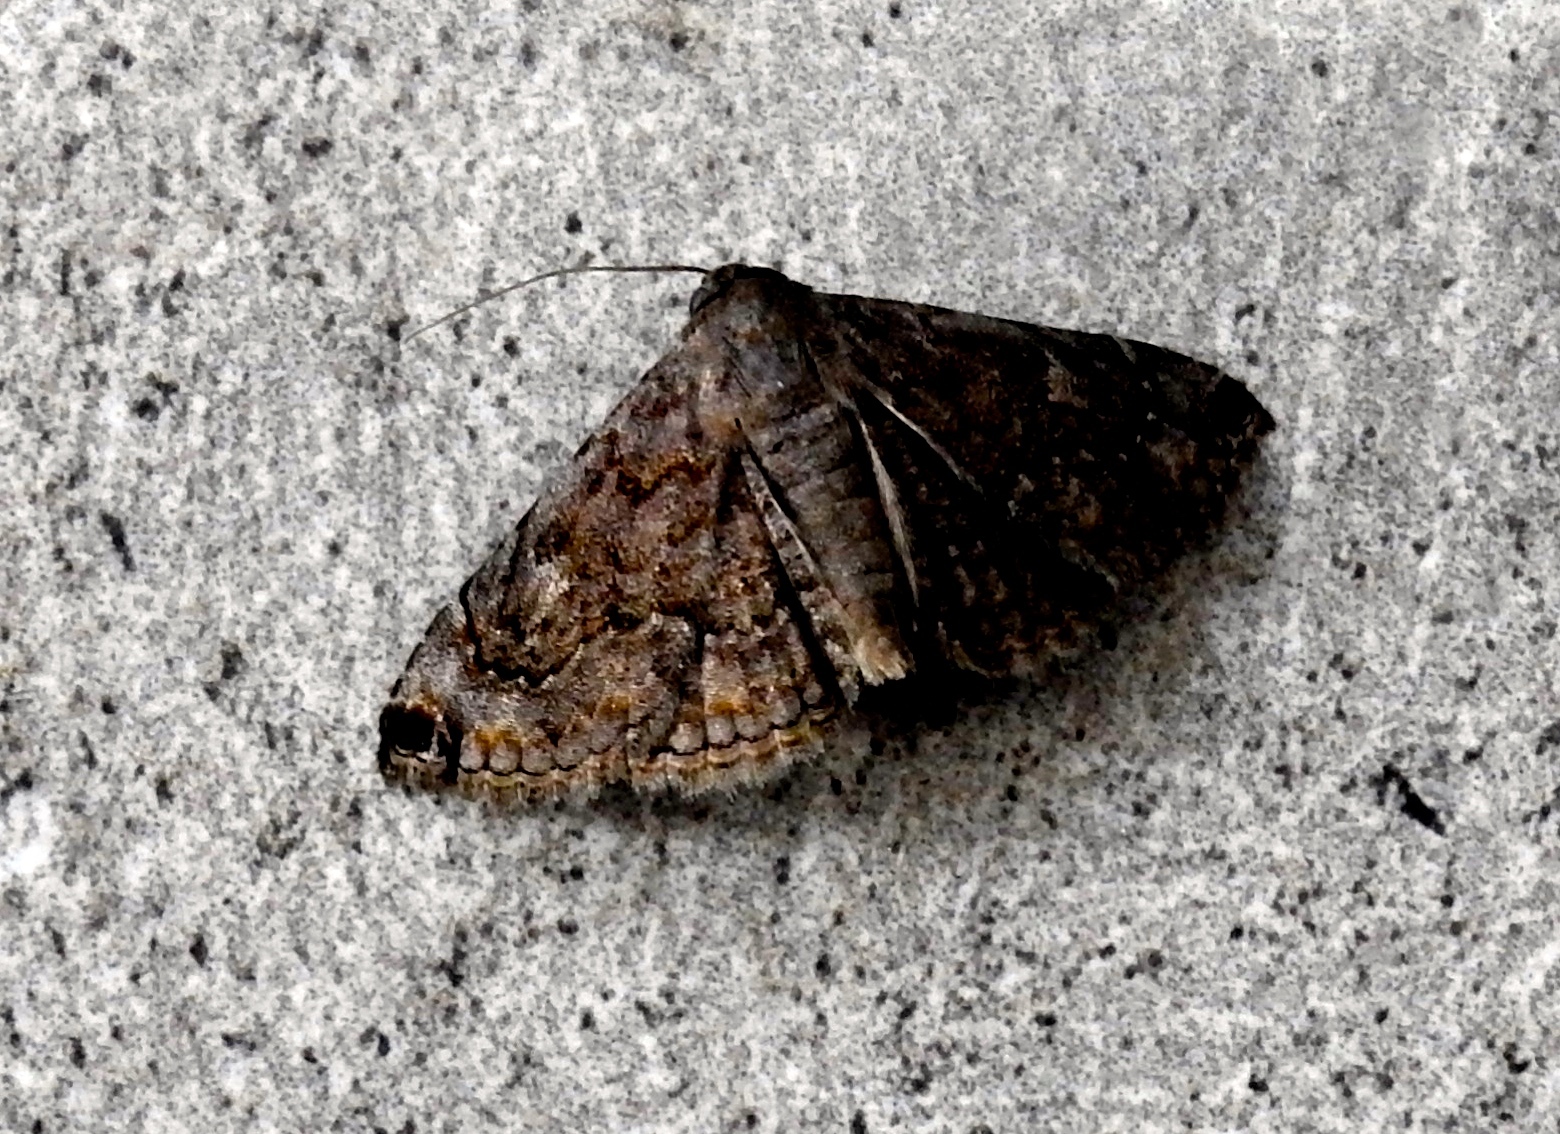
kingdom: Animalia
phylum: Arthropoda
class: Insecta
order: Lepidoptera
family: Erebidae
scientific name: Erebidae
